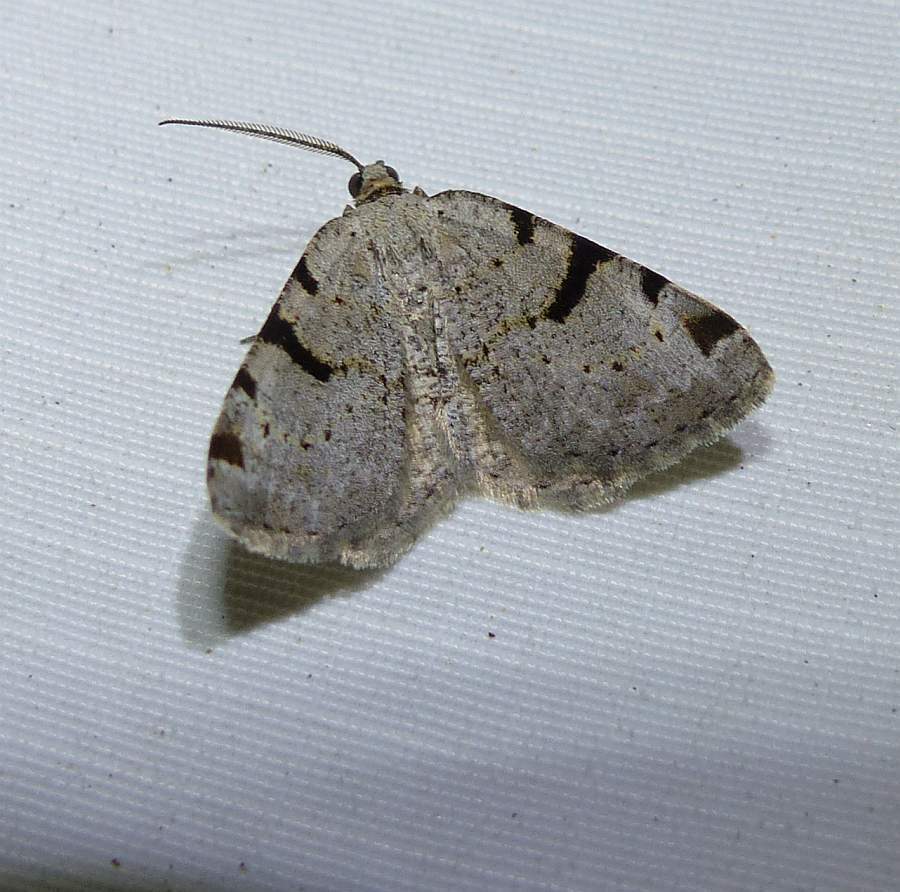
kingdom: Animalia
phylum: Arthropoda
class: Insecta
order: Lepidoptera
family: Geometridae
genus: Macaria
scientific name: Macaria subcessaria
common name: Barred angle
